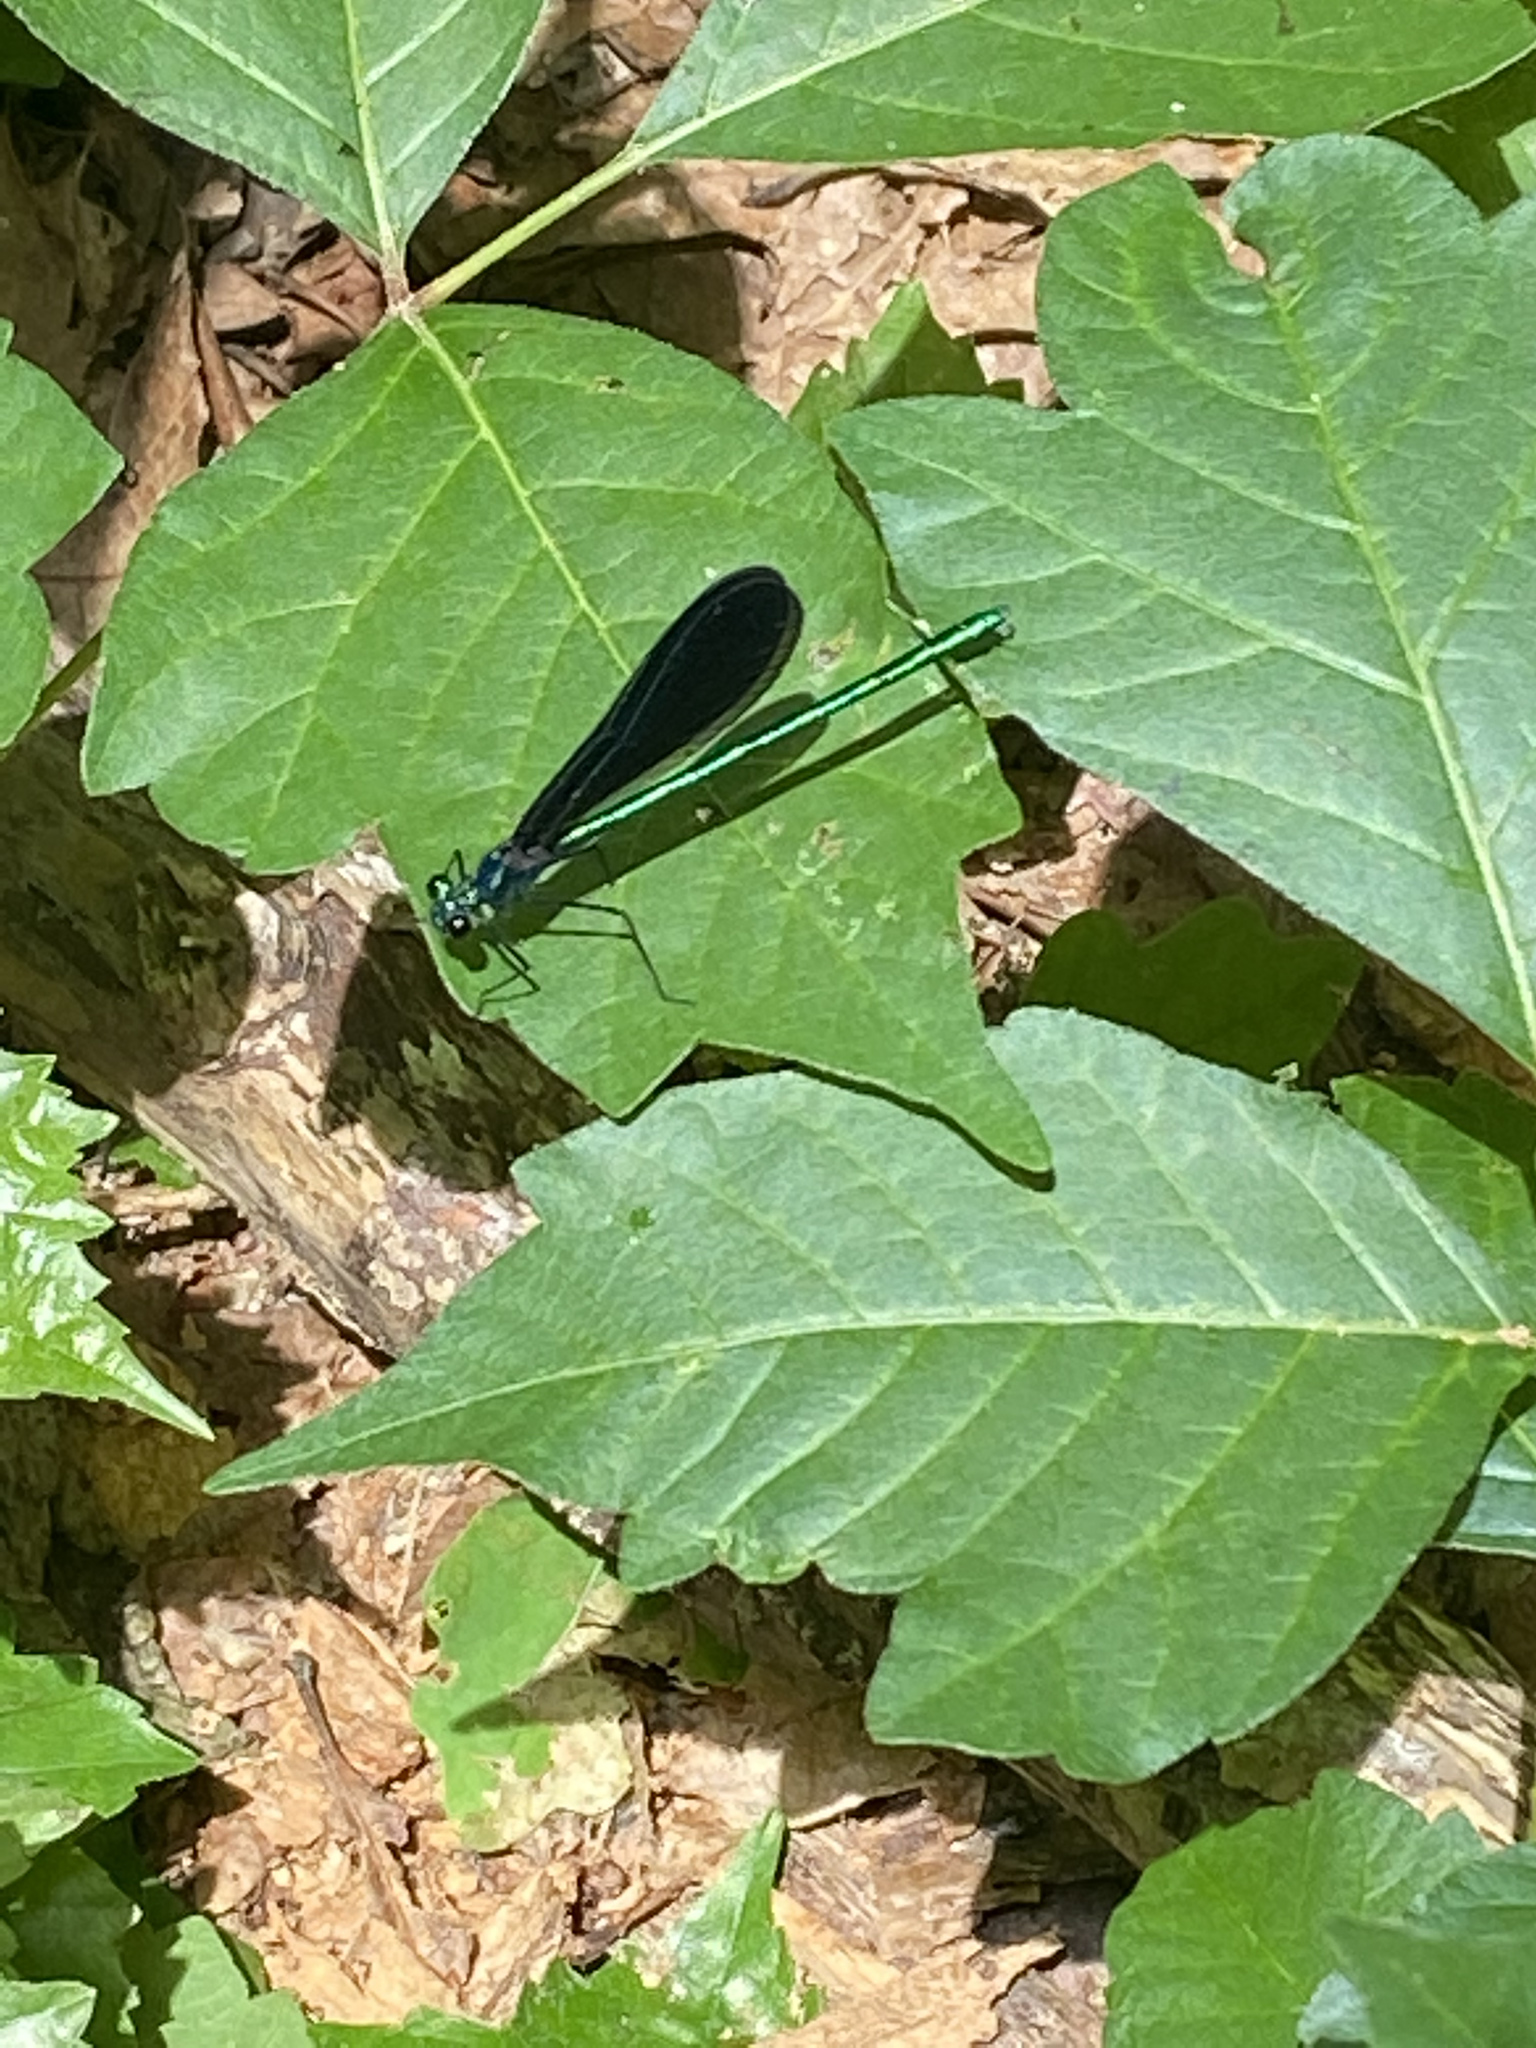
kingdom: Animalia
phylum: Arthropoda
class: Insecta
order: Odonata
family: Calopterygidae
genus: Calopteryx
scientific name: Calopteryx maculata
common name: Ebony jewelwing
